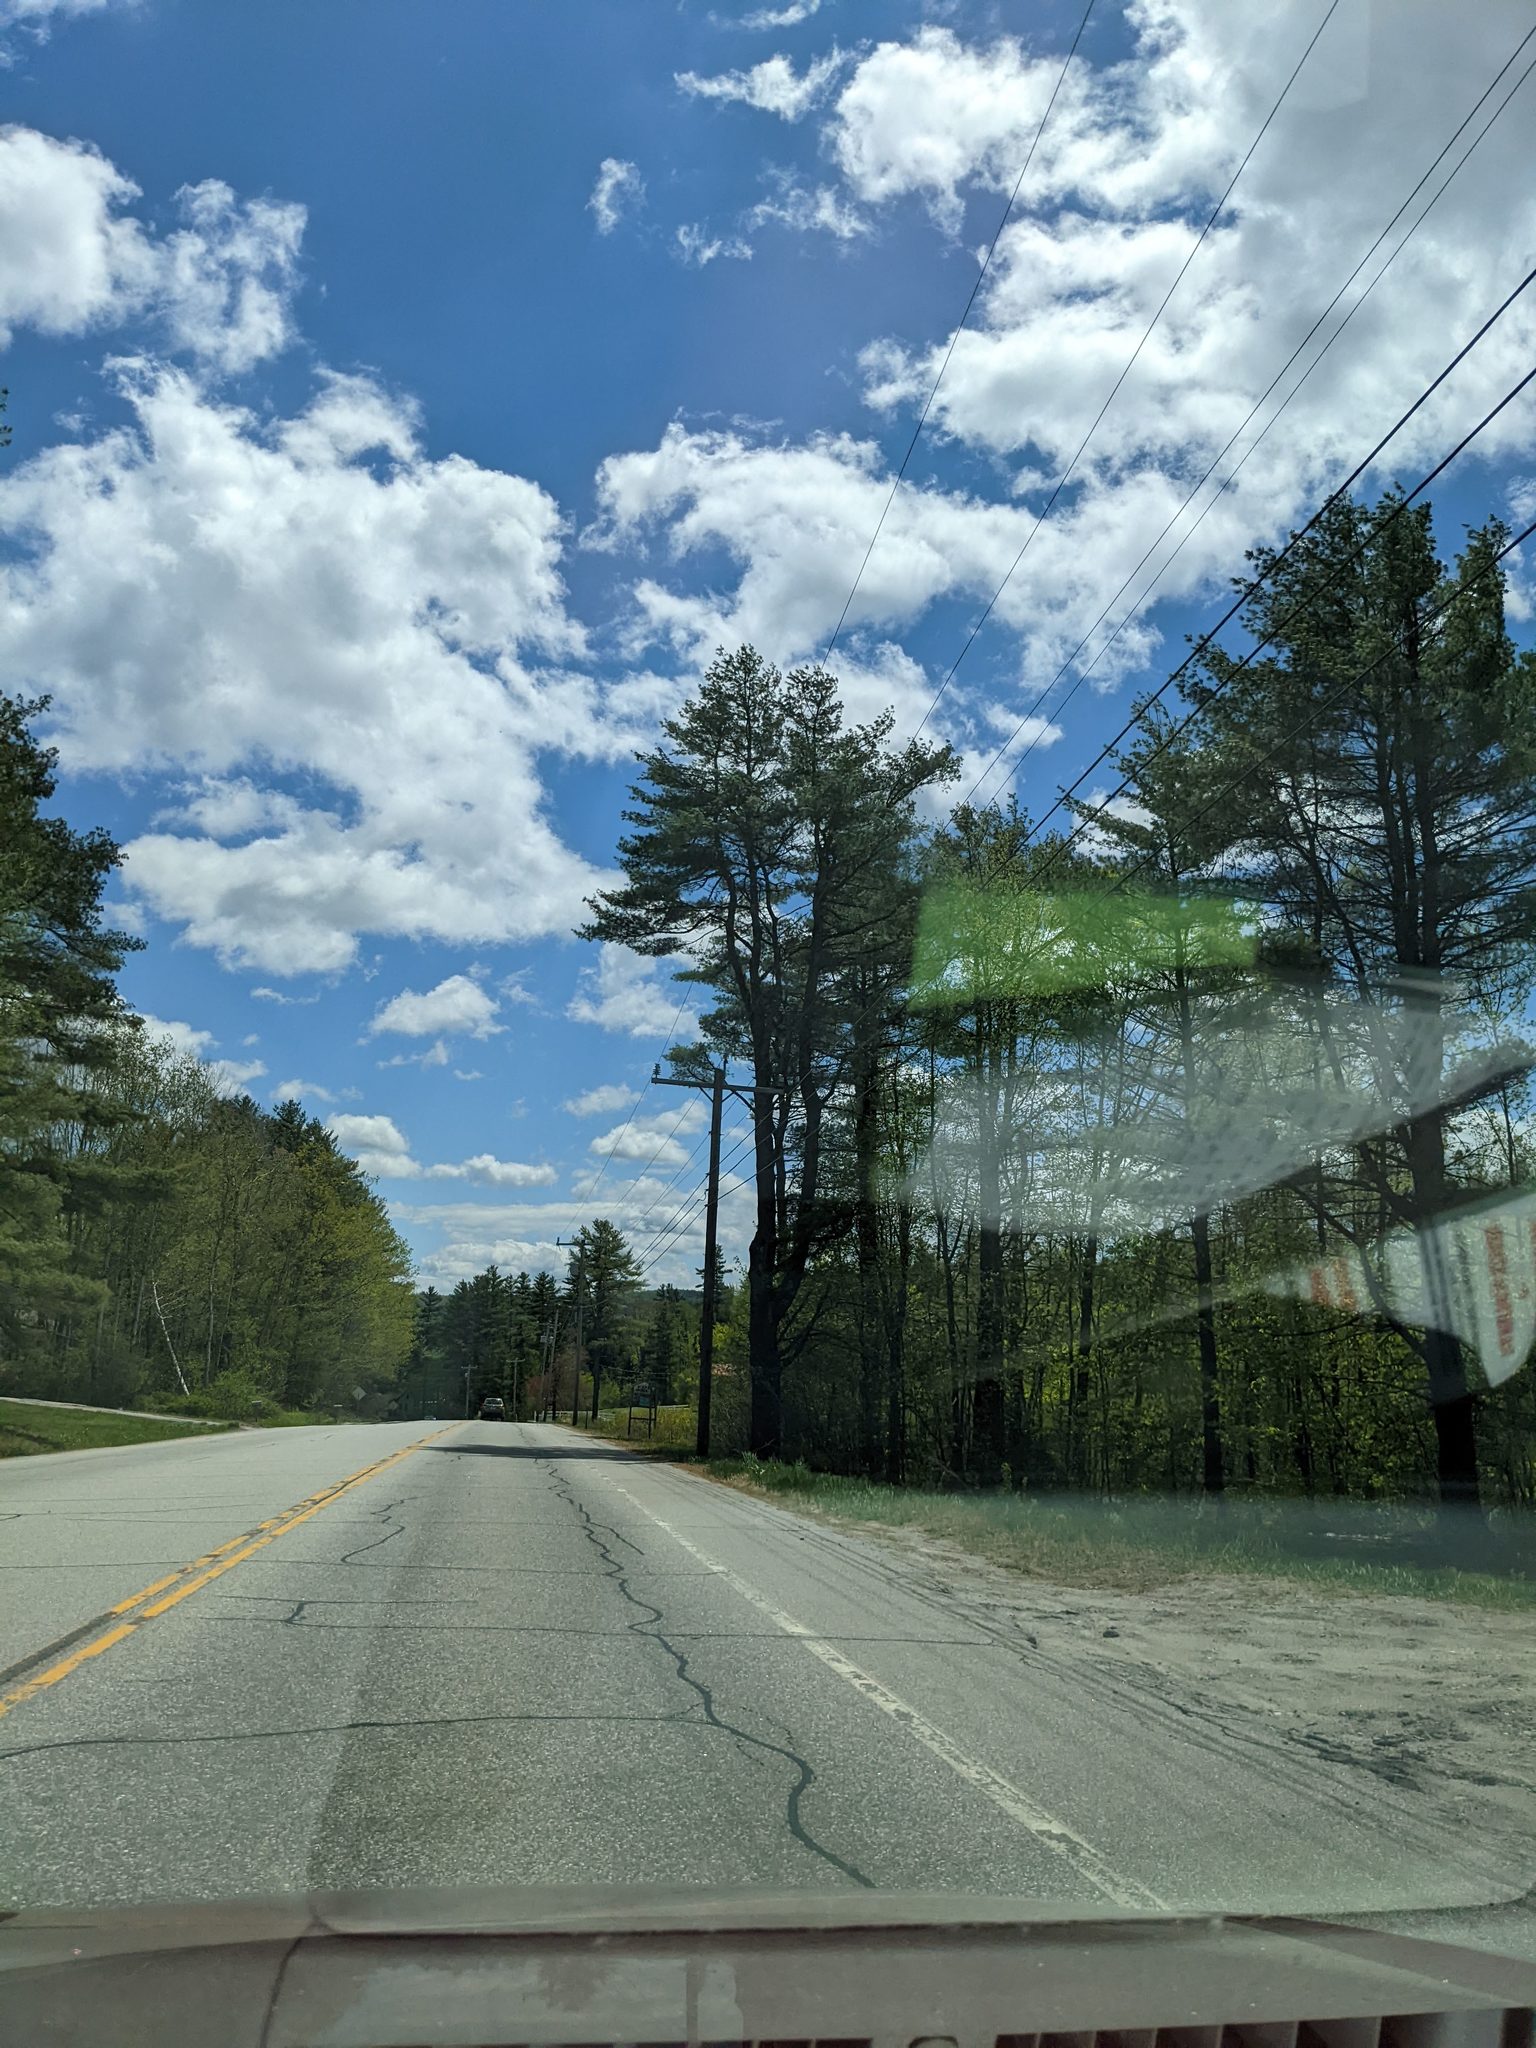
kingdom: Plantae
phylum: Tracheophyta
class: Pinopsida
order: Pinales
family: Pinaceae
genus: Pinus
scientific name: Pinus strobus
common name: Weymouth pine
